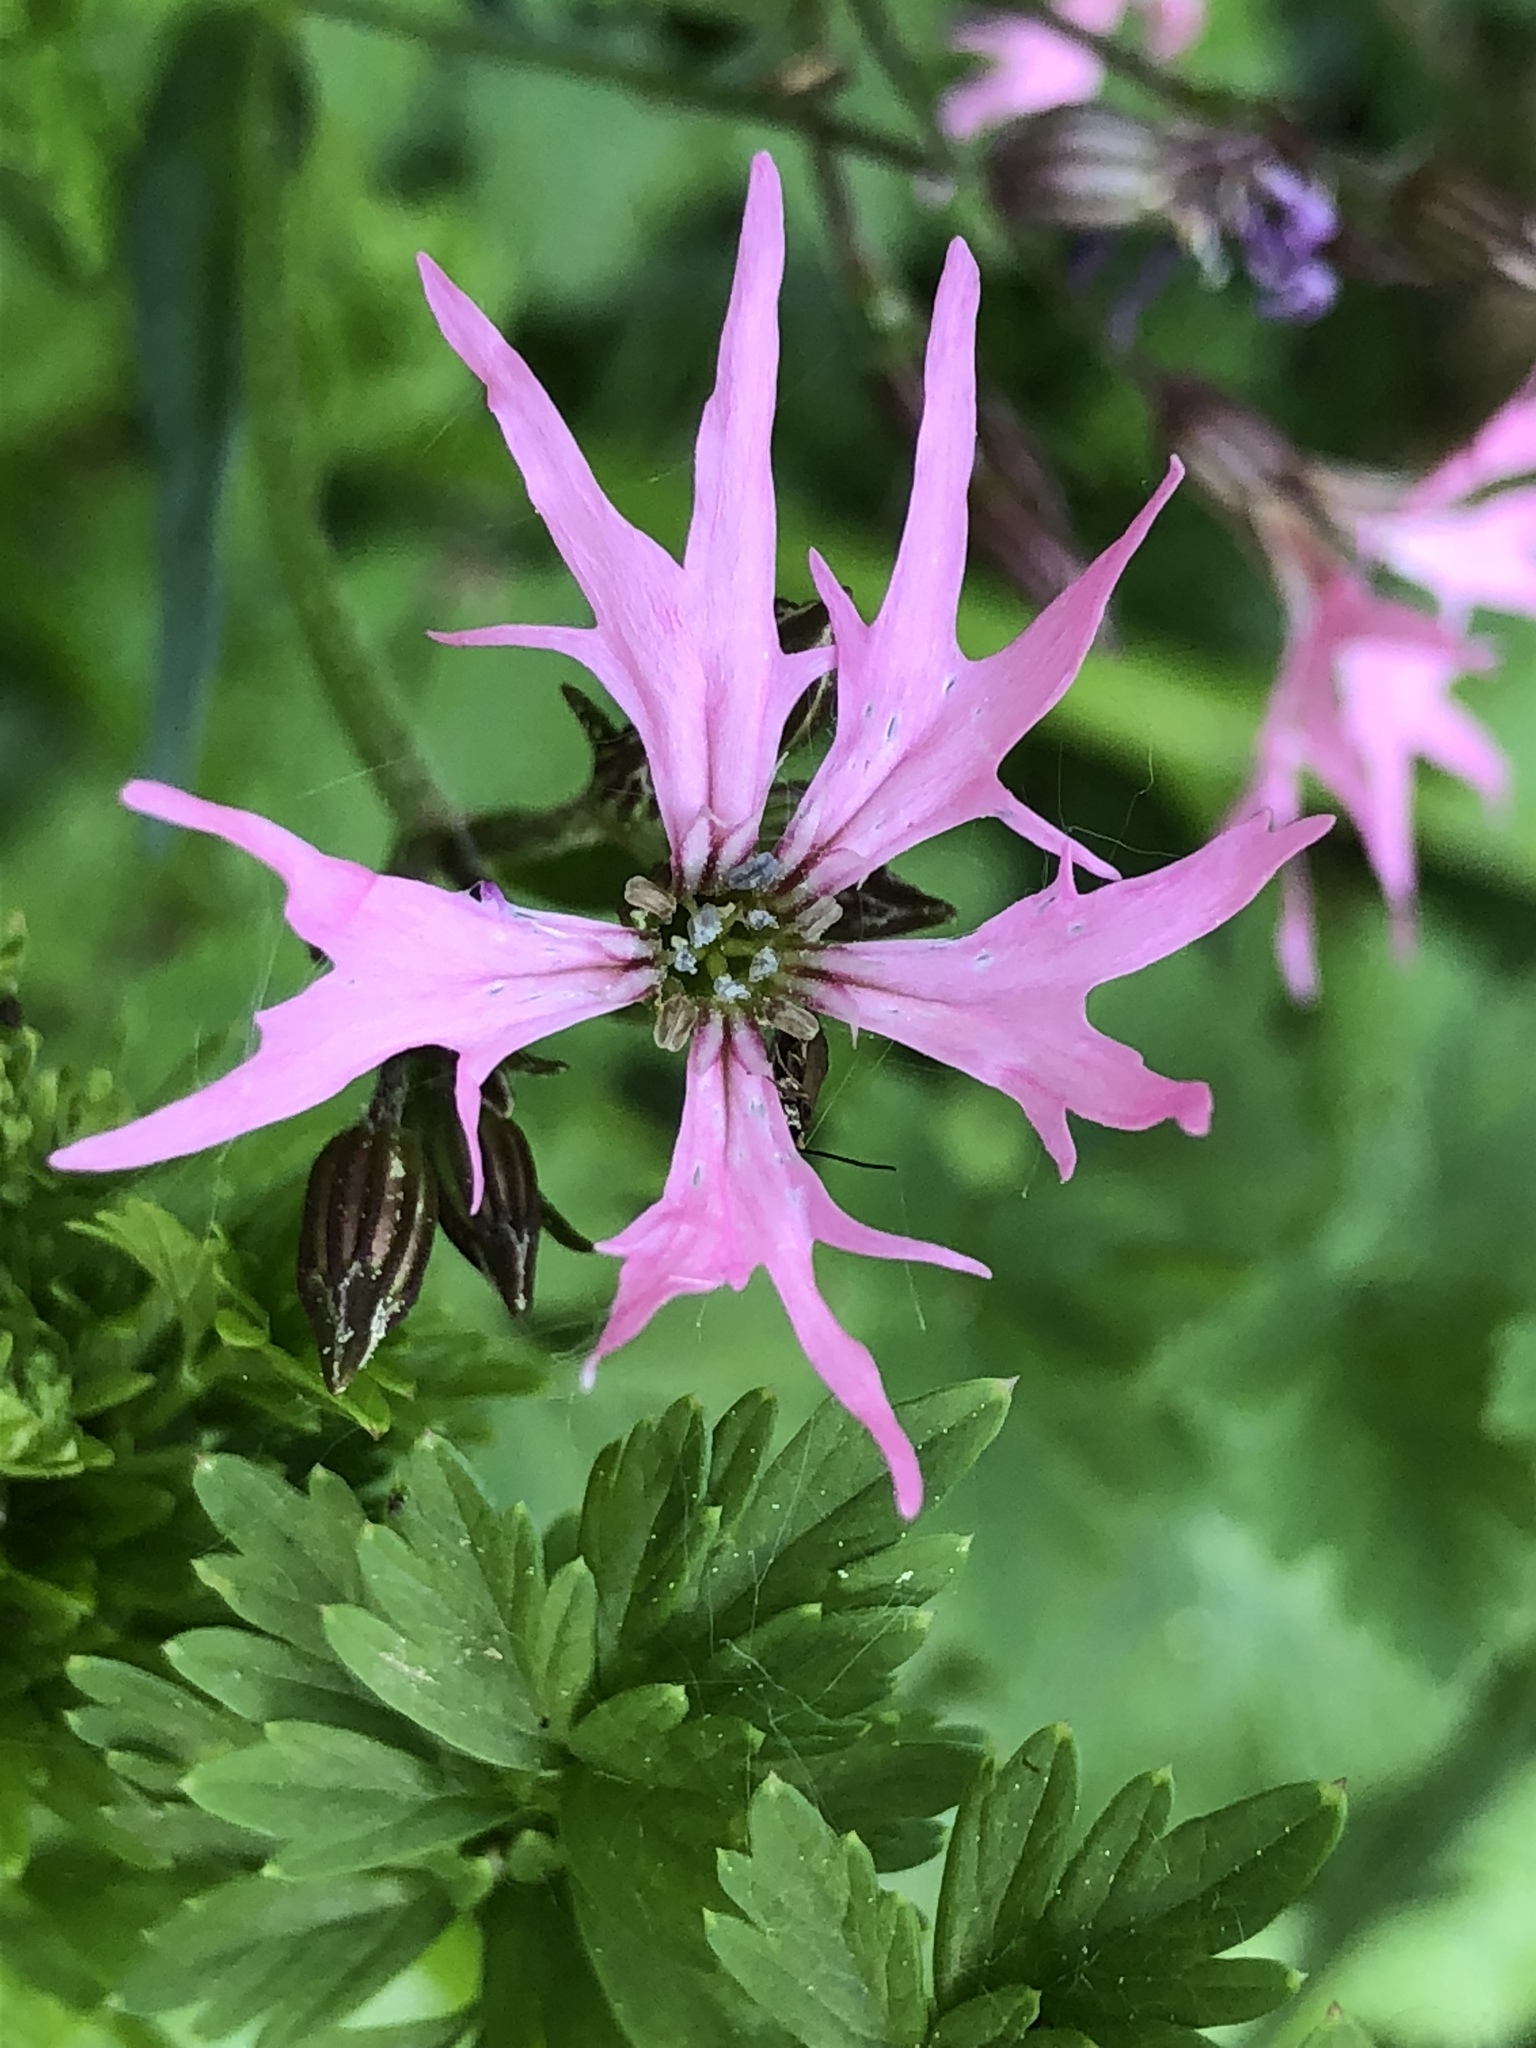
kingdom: Plantae
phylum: Tracheophyta
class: Magnoliopsida
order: Caryophyllales
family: Caryophyllaceae
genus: Silene
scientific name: Silene flos-cuculi
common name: Ragged-robin
